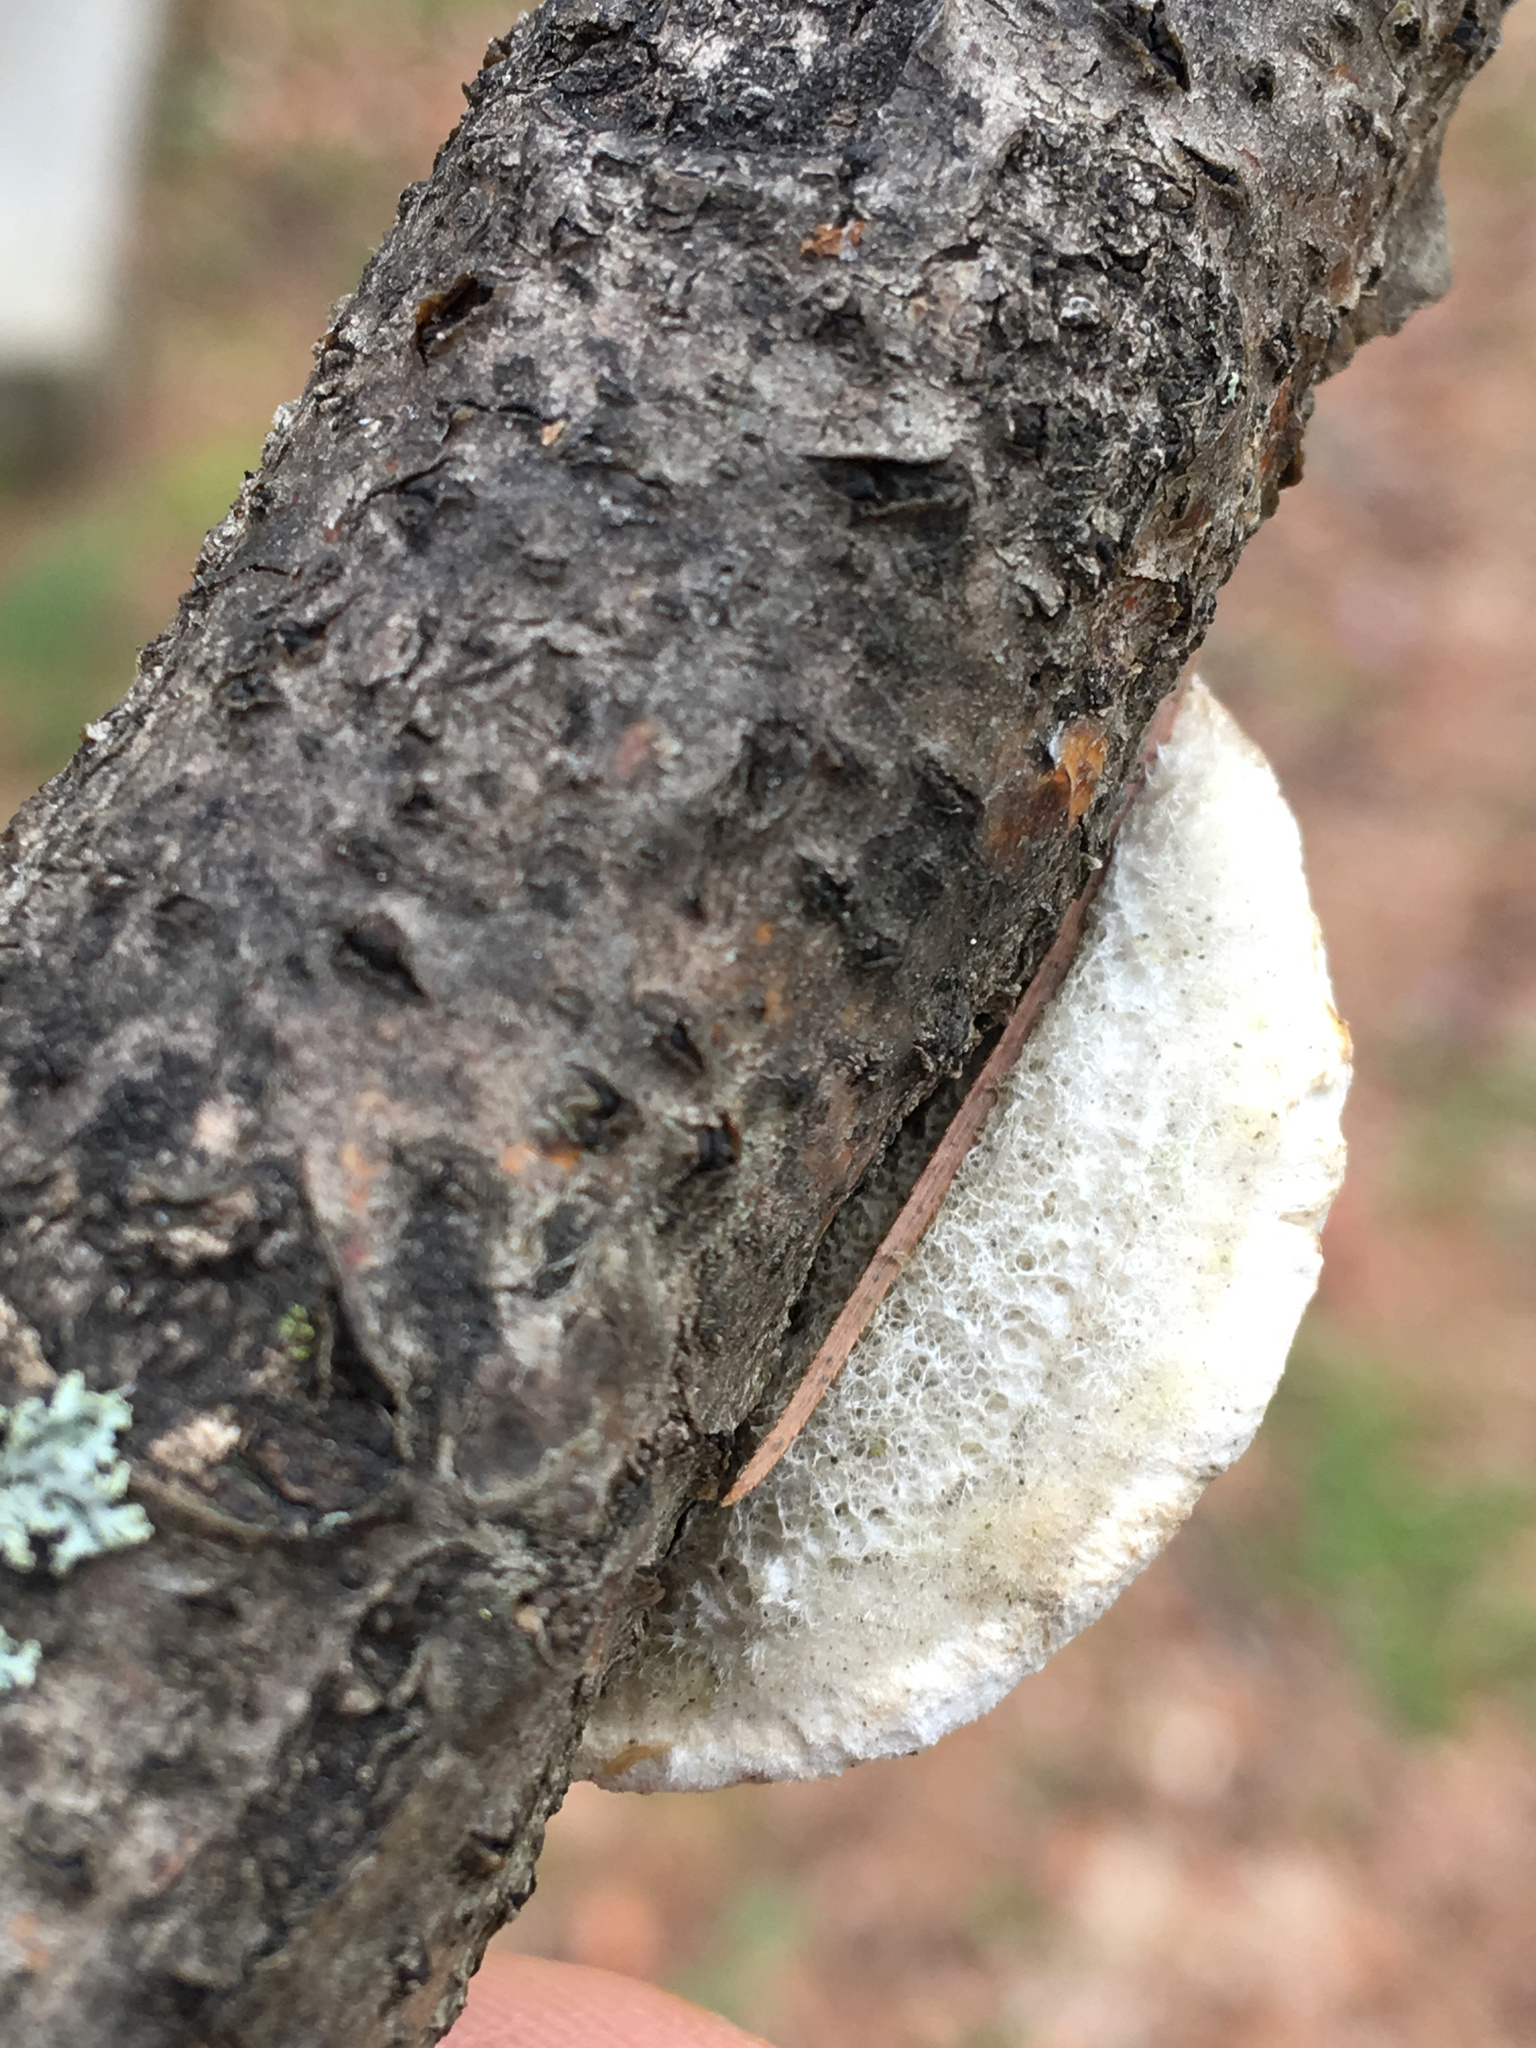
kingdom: Fungi
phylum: Basidiomycota
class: Agaricomycetes
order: Polyporales
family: Polyporaceae
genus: Trametes
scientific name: Trametes hirsuta
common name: Hairy bracket
